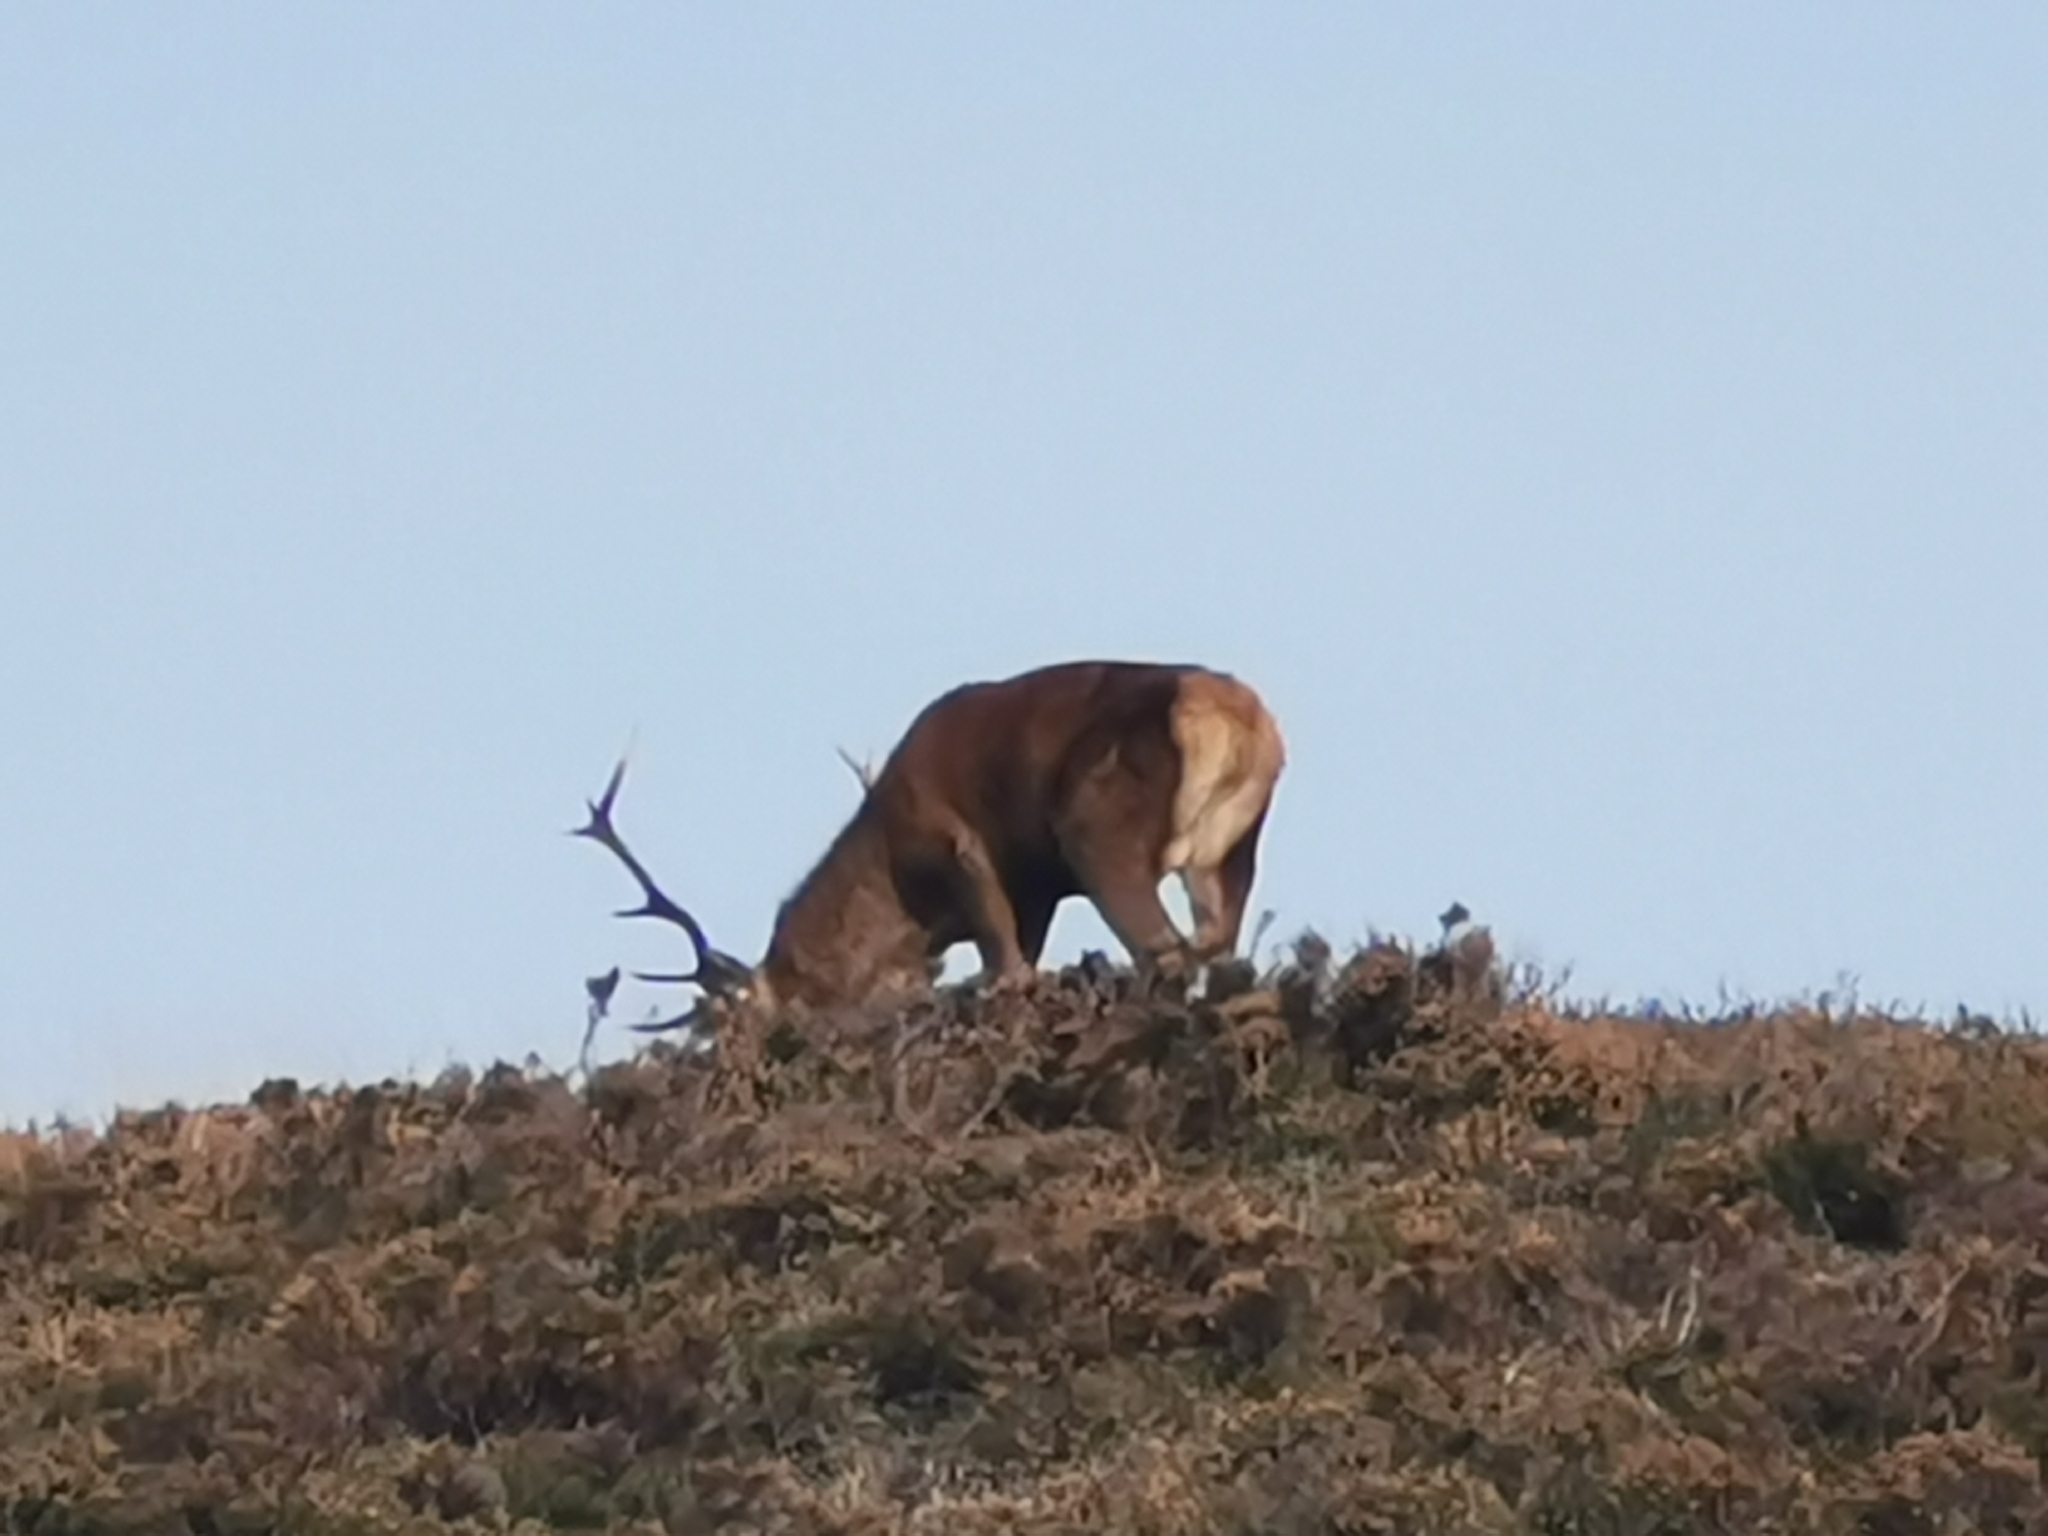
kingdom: Animalia
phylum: Chordata
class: Mammalia
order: Artiodactyla
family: Cervidae
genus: Cervus
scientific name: Cervus elaphus
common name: Red deer
